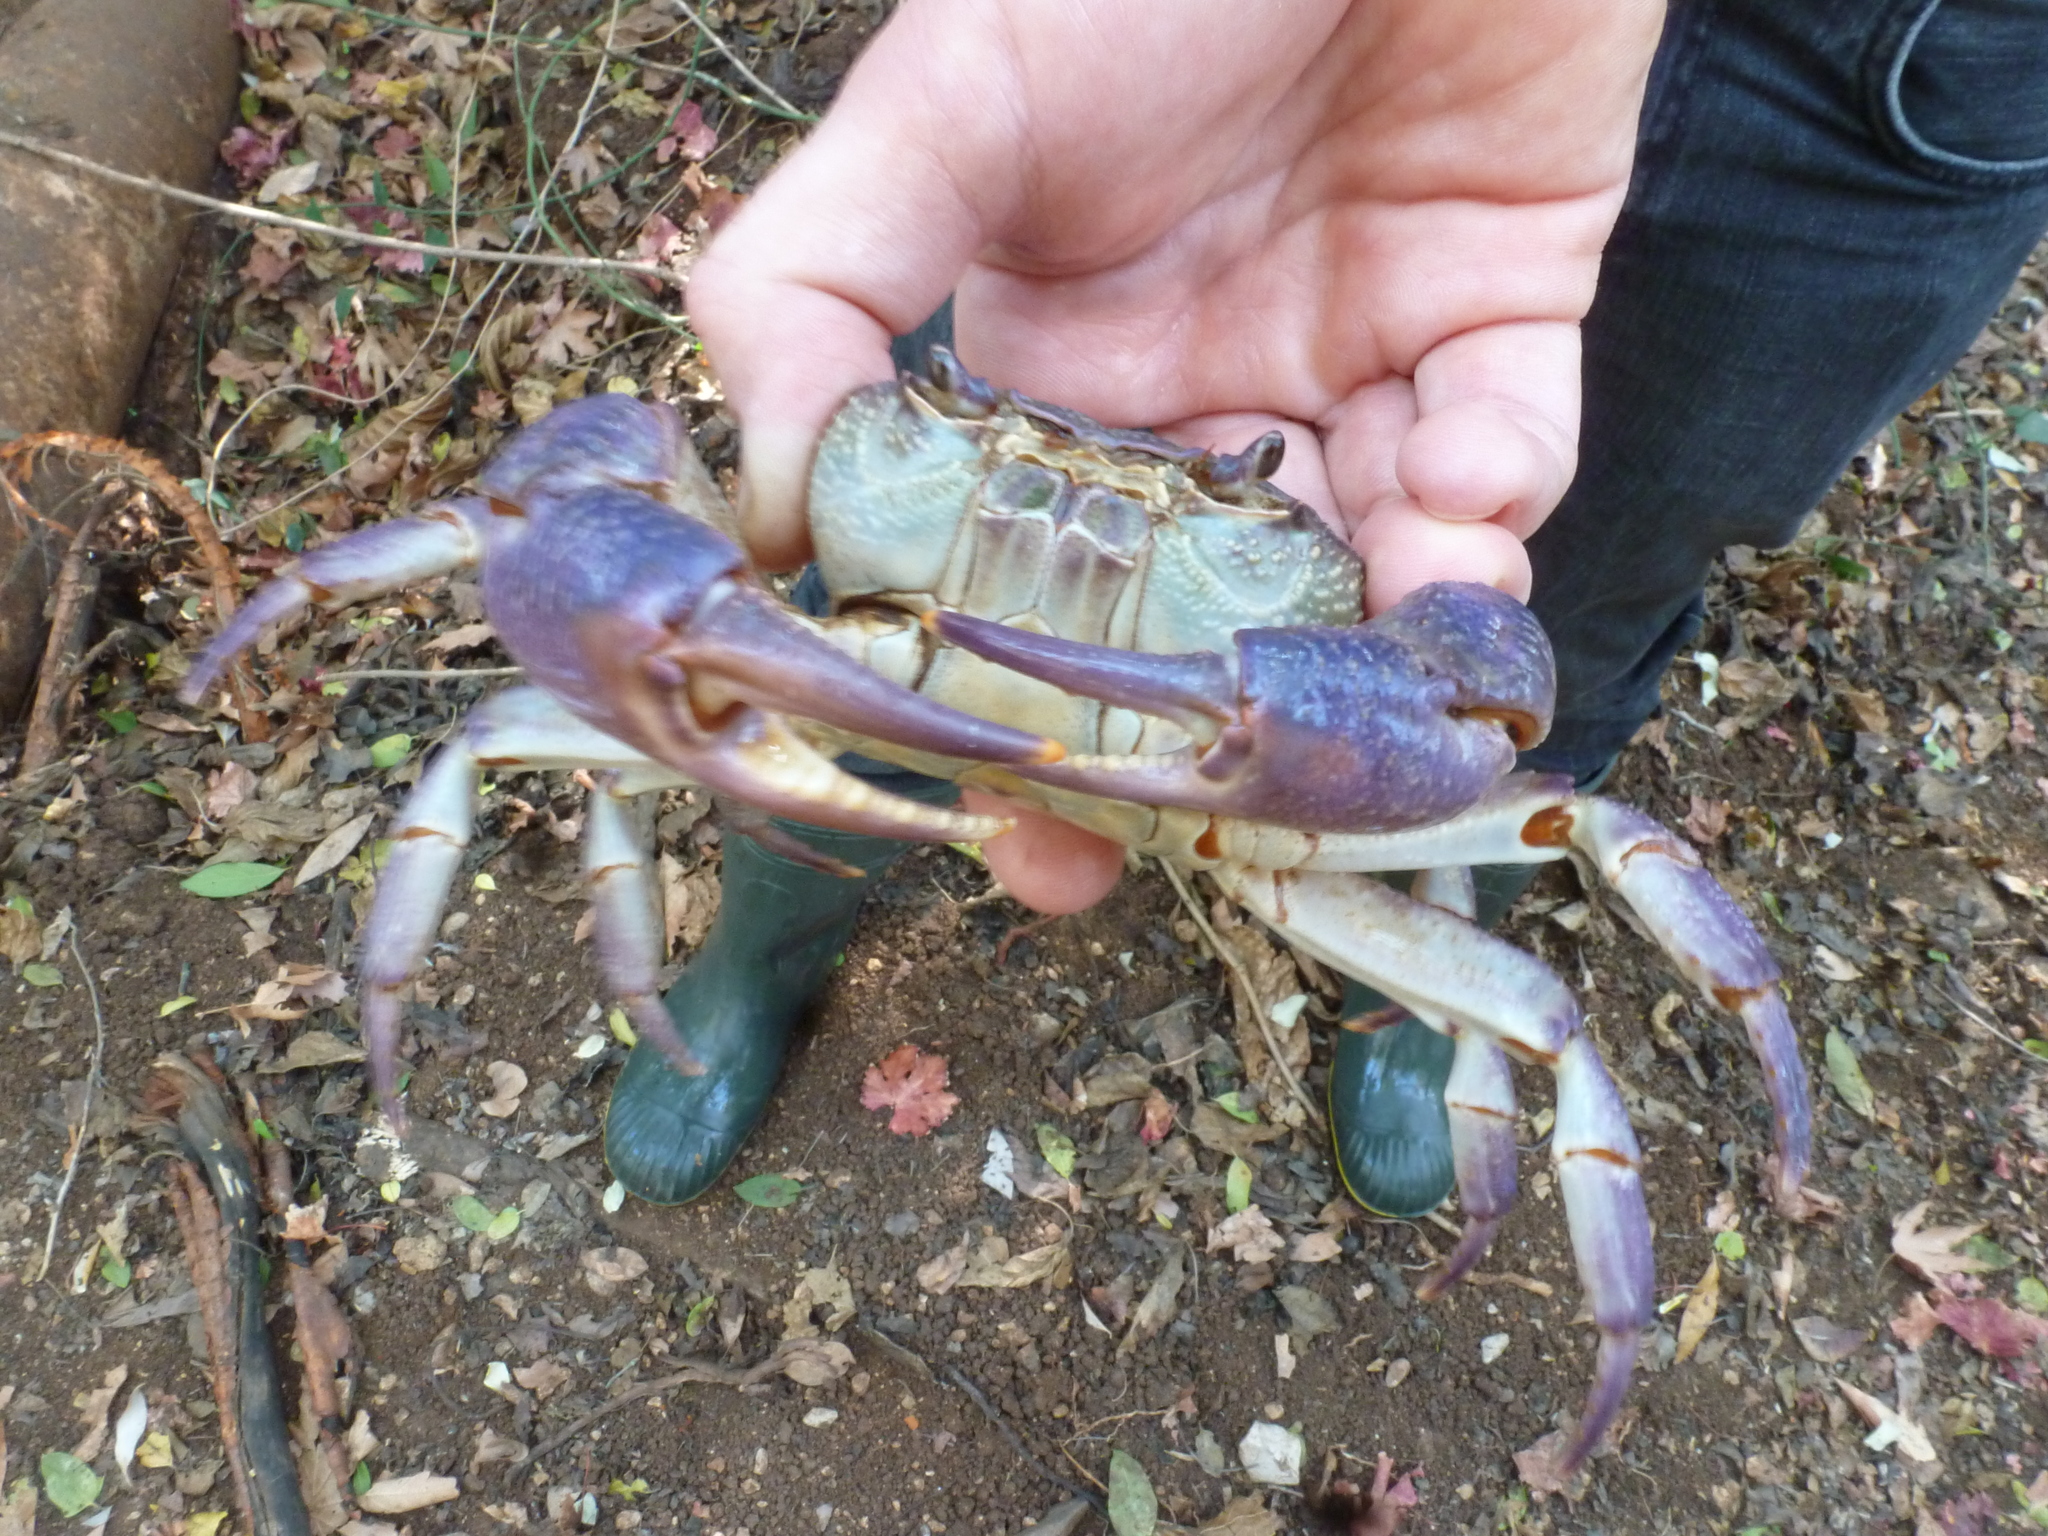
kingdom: Animalia
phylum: Arthropoda
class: Malacostraca
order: Decapoda
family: Potamidae
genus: Potamon
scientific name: Potamon potamios
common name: Aegean freshwater crab
